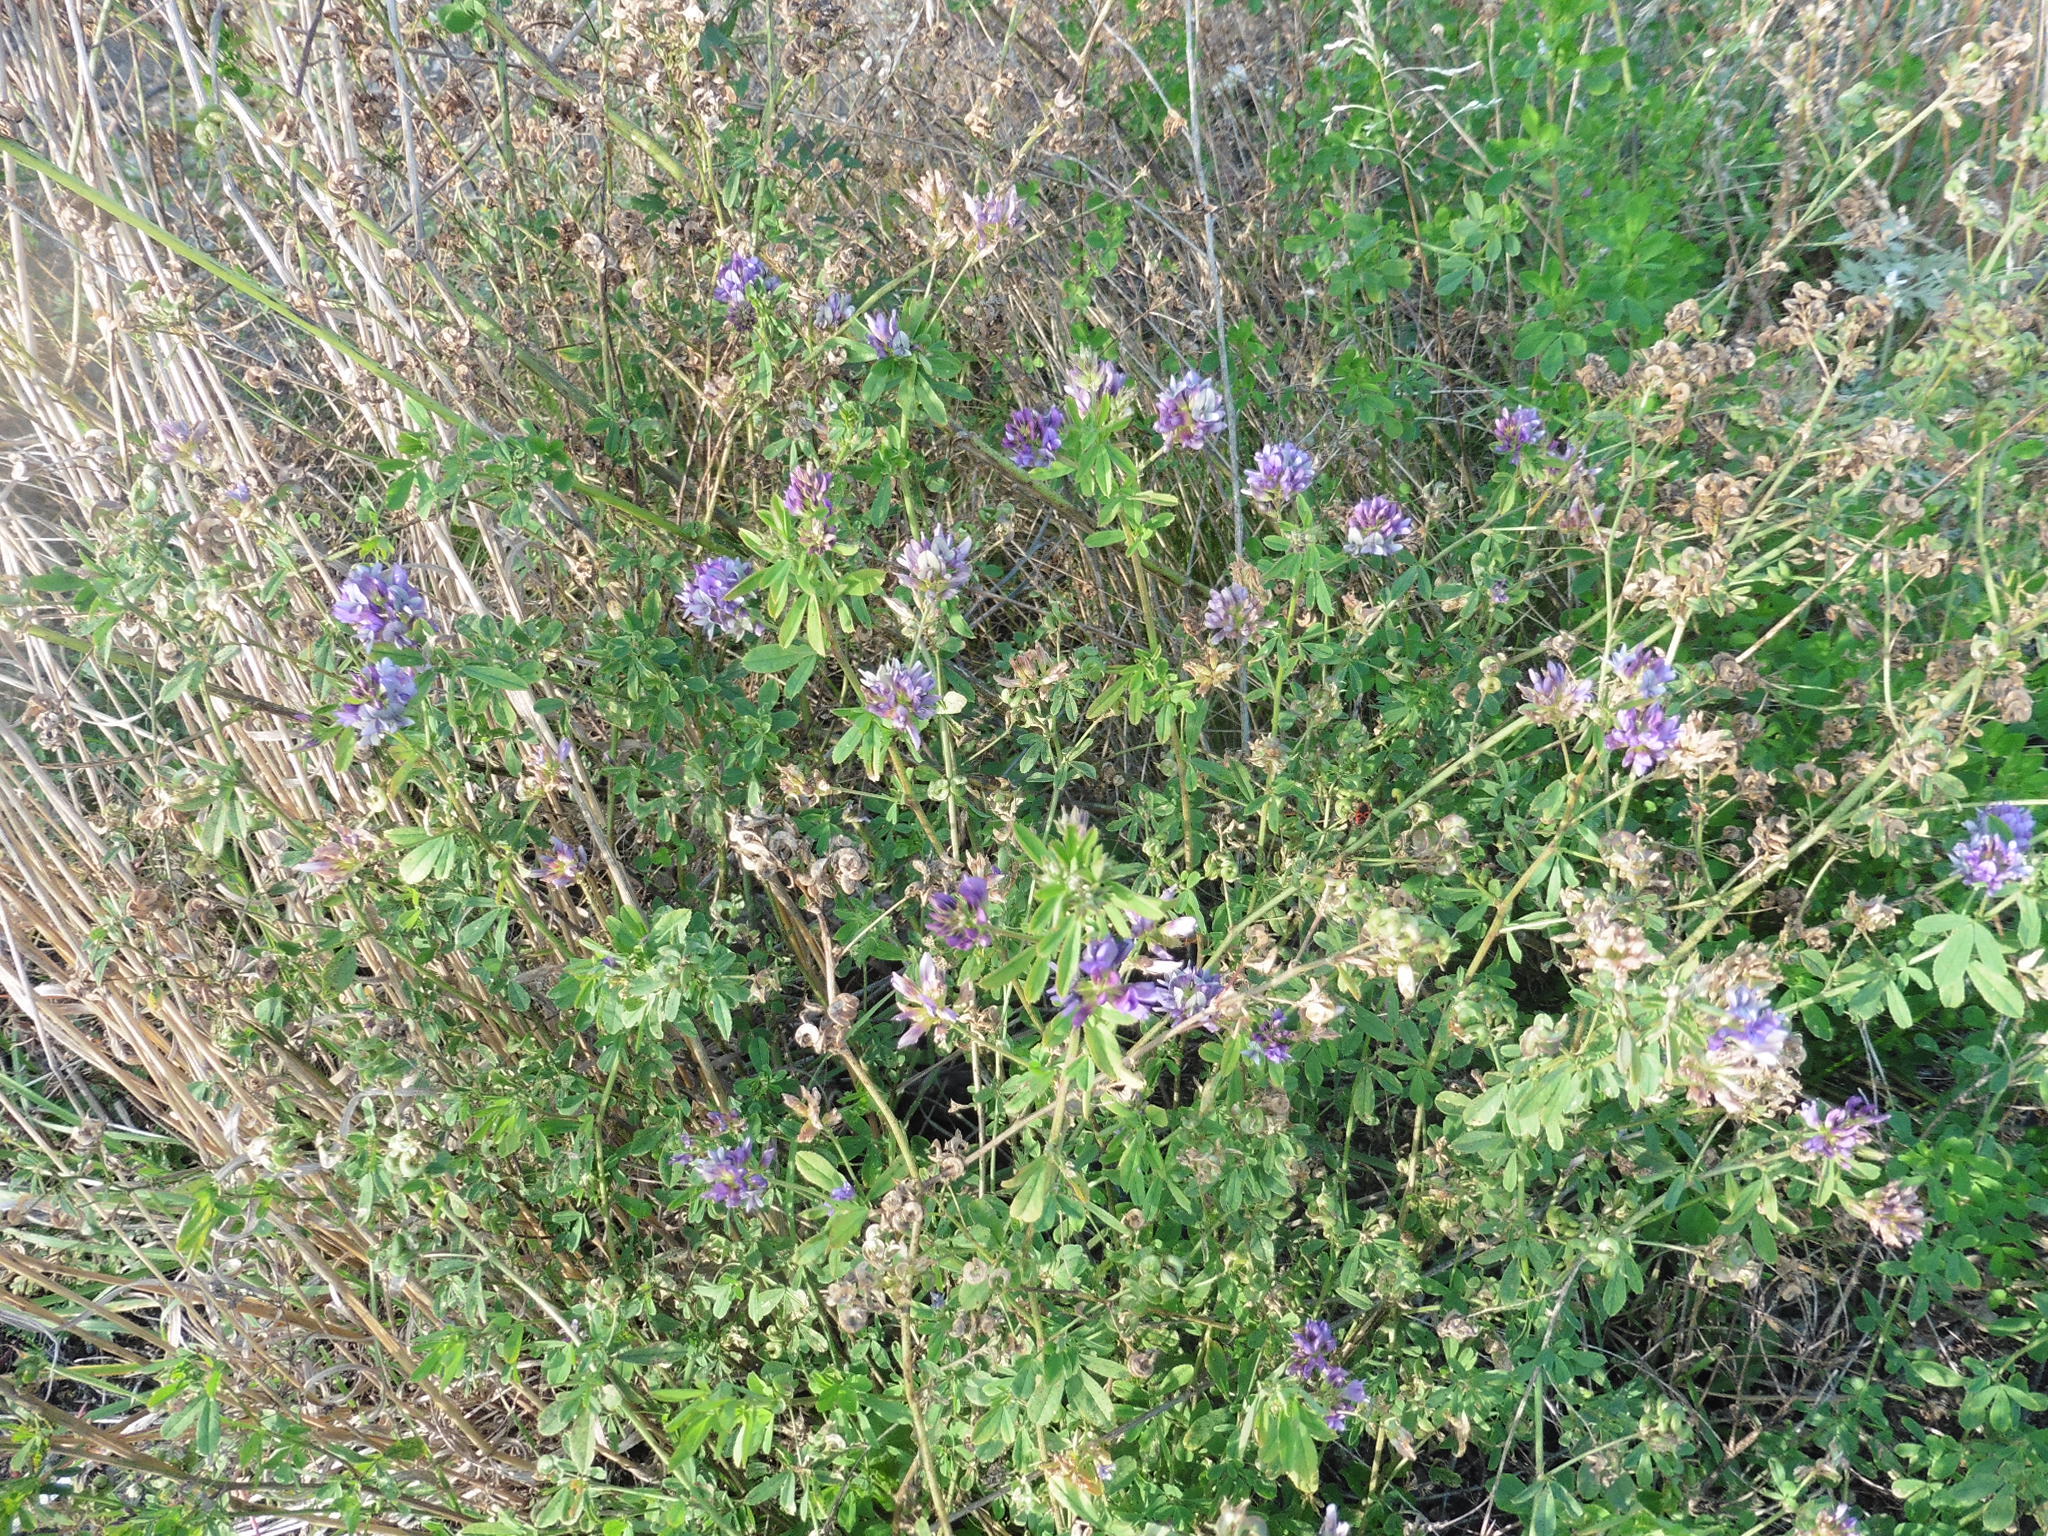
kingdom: Plantae
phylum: Tracheophyta
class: Magnoliopsida
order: Fabales
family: Fabaceae
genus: Medicago
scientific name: Medicago sativa
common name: Alfalfa
